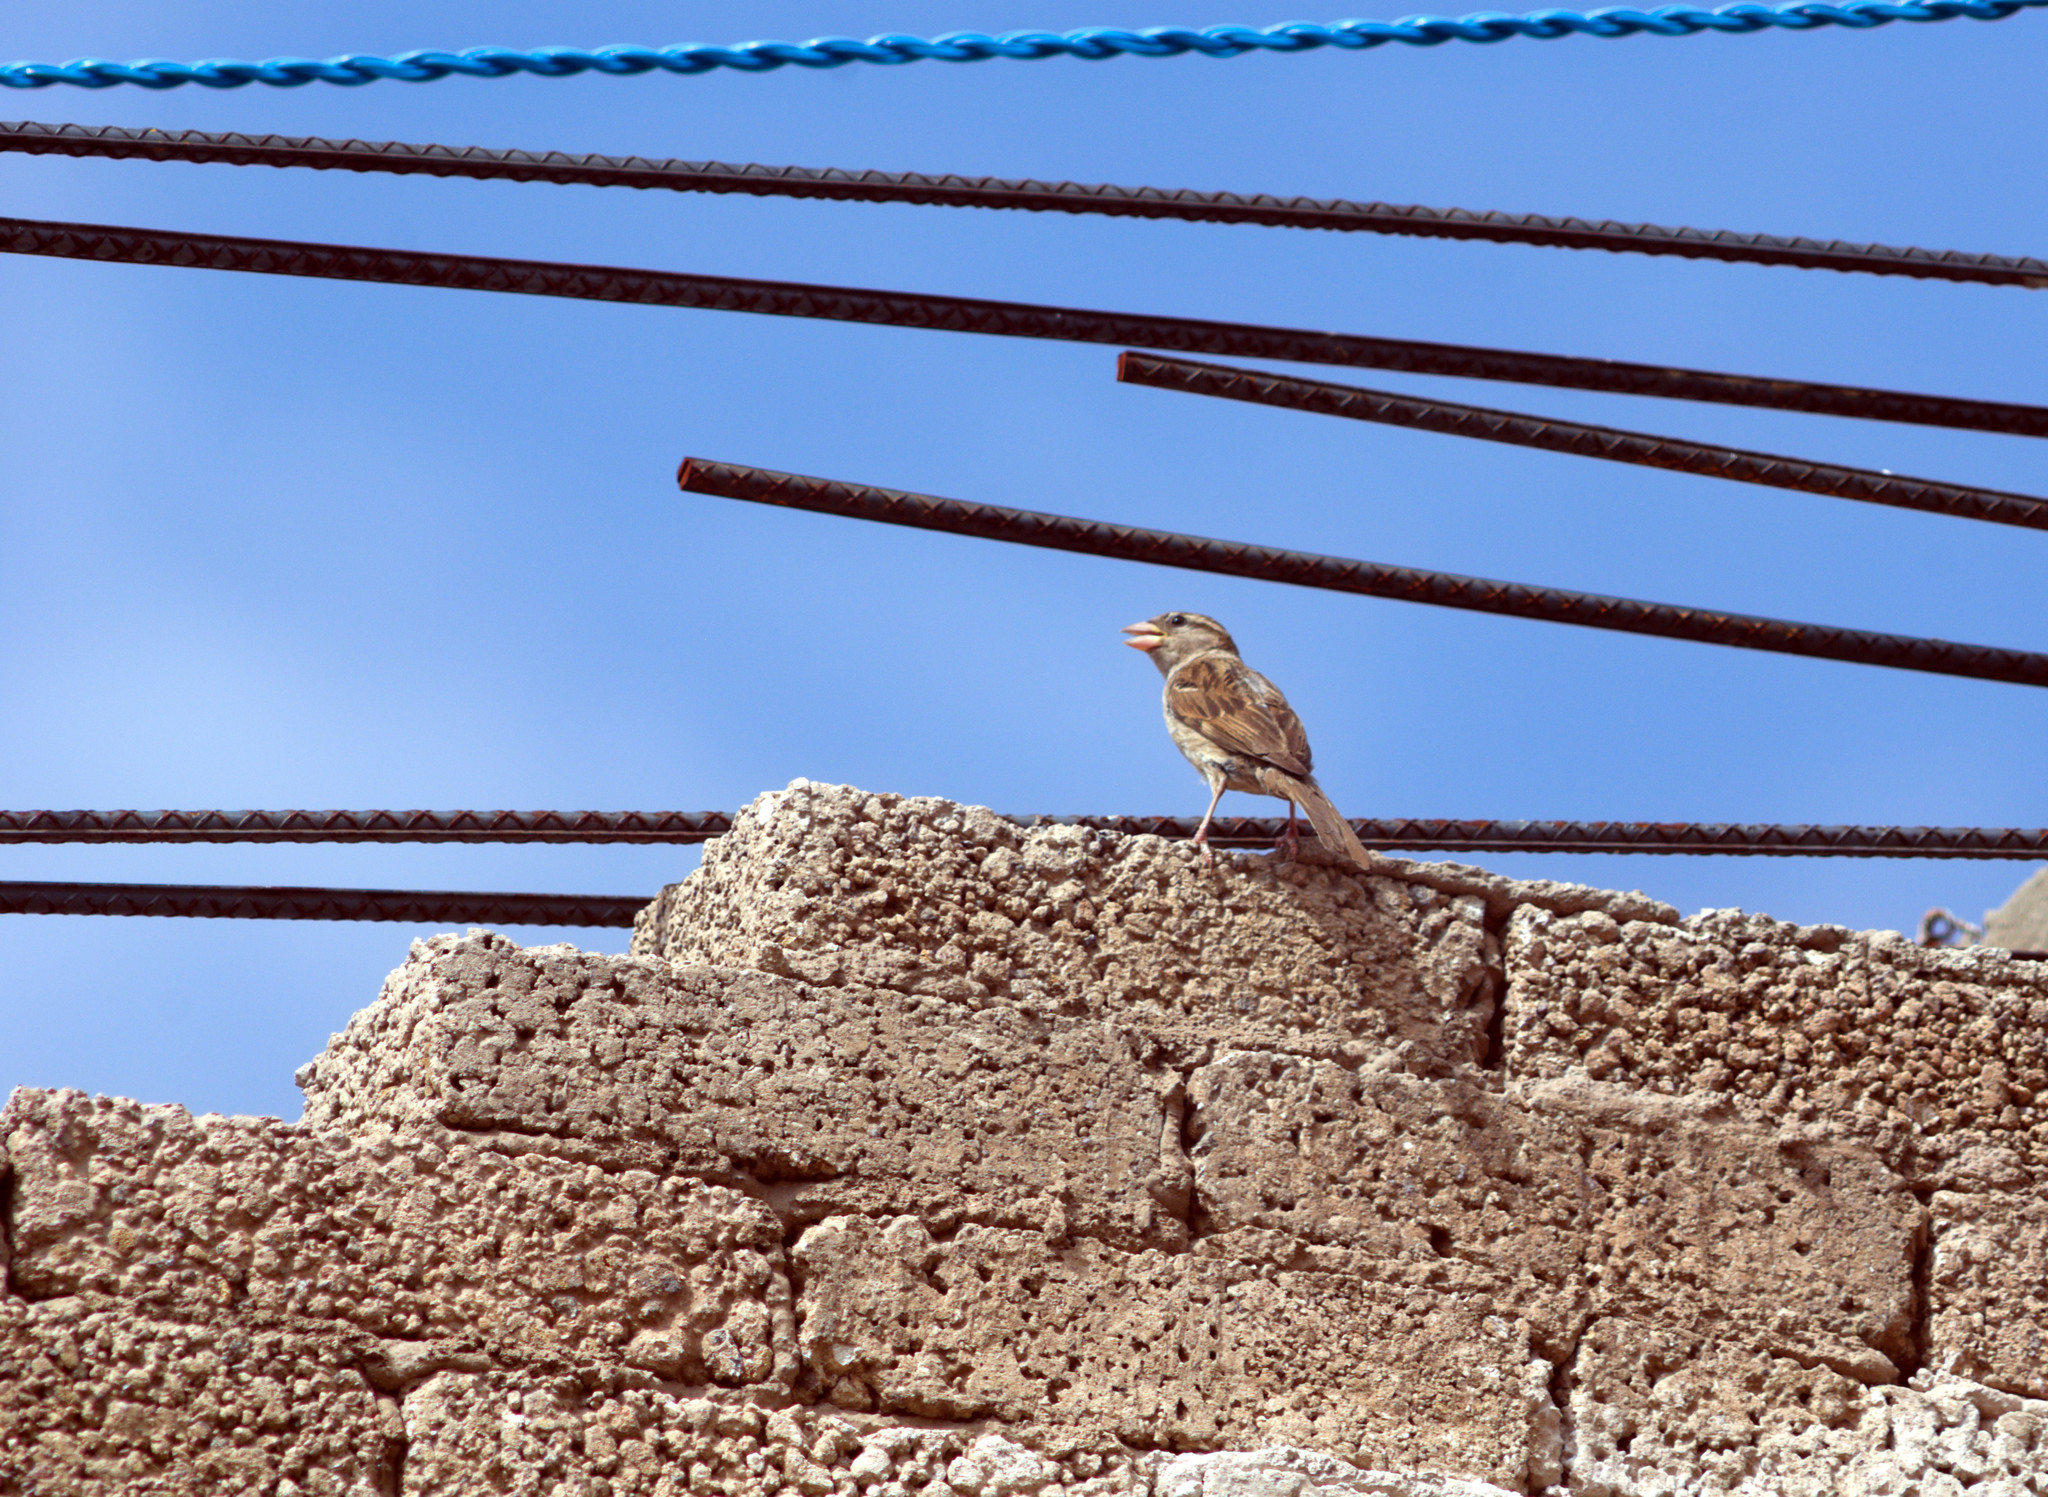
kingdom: Animalia
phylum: Chordata
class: Aves
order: Passeriformes
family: Passeridae
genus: Passer
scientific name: Passer domesticus
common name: House sparrow
